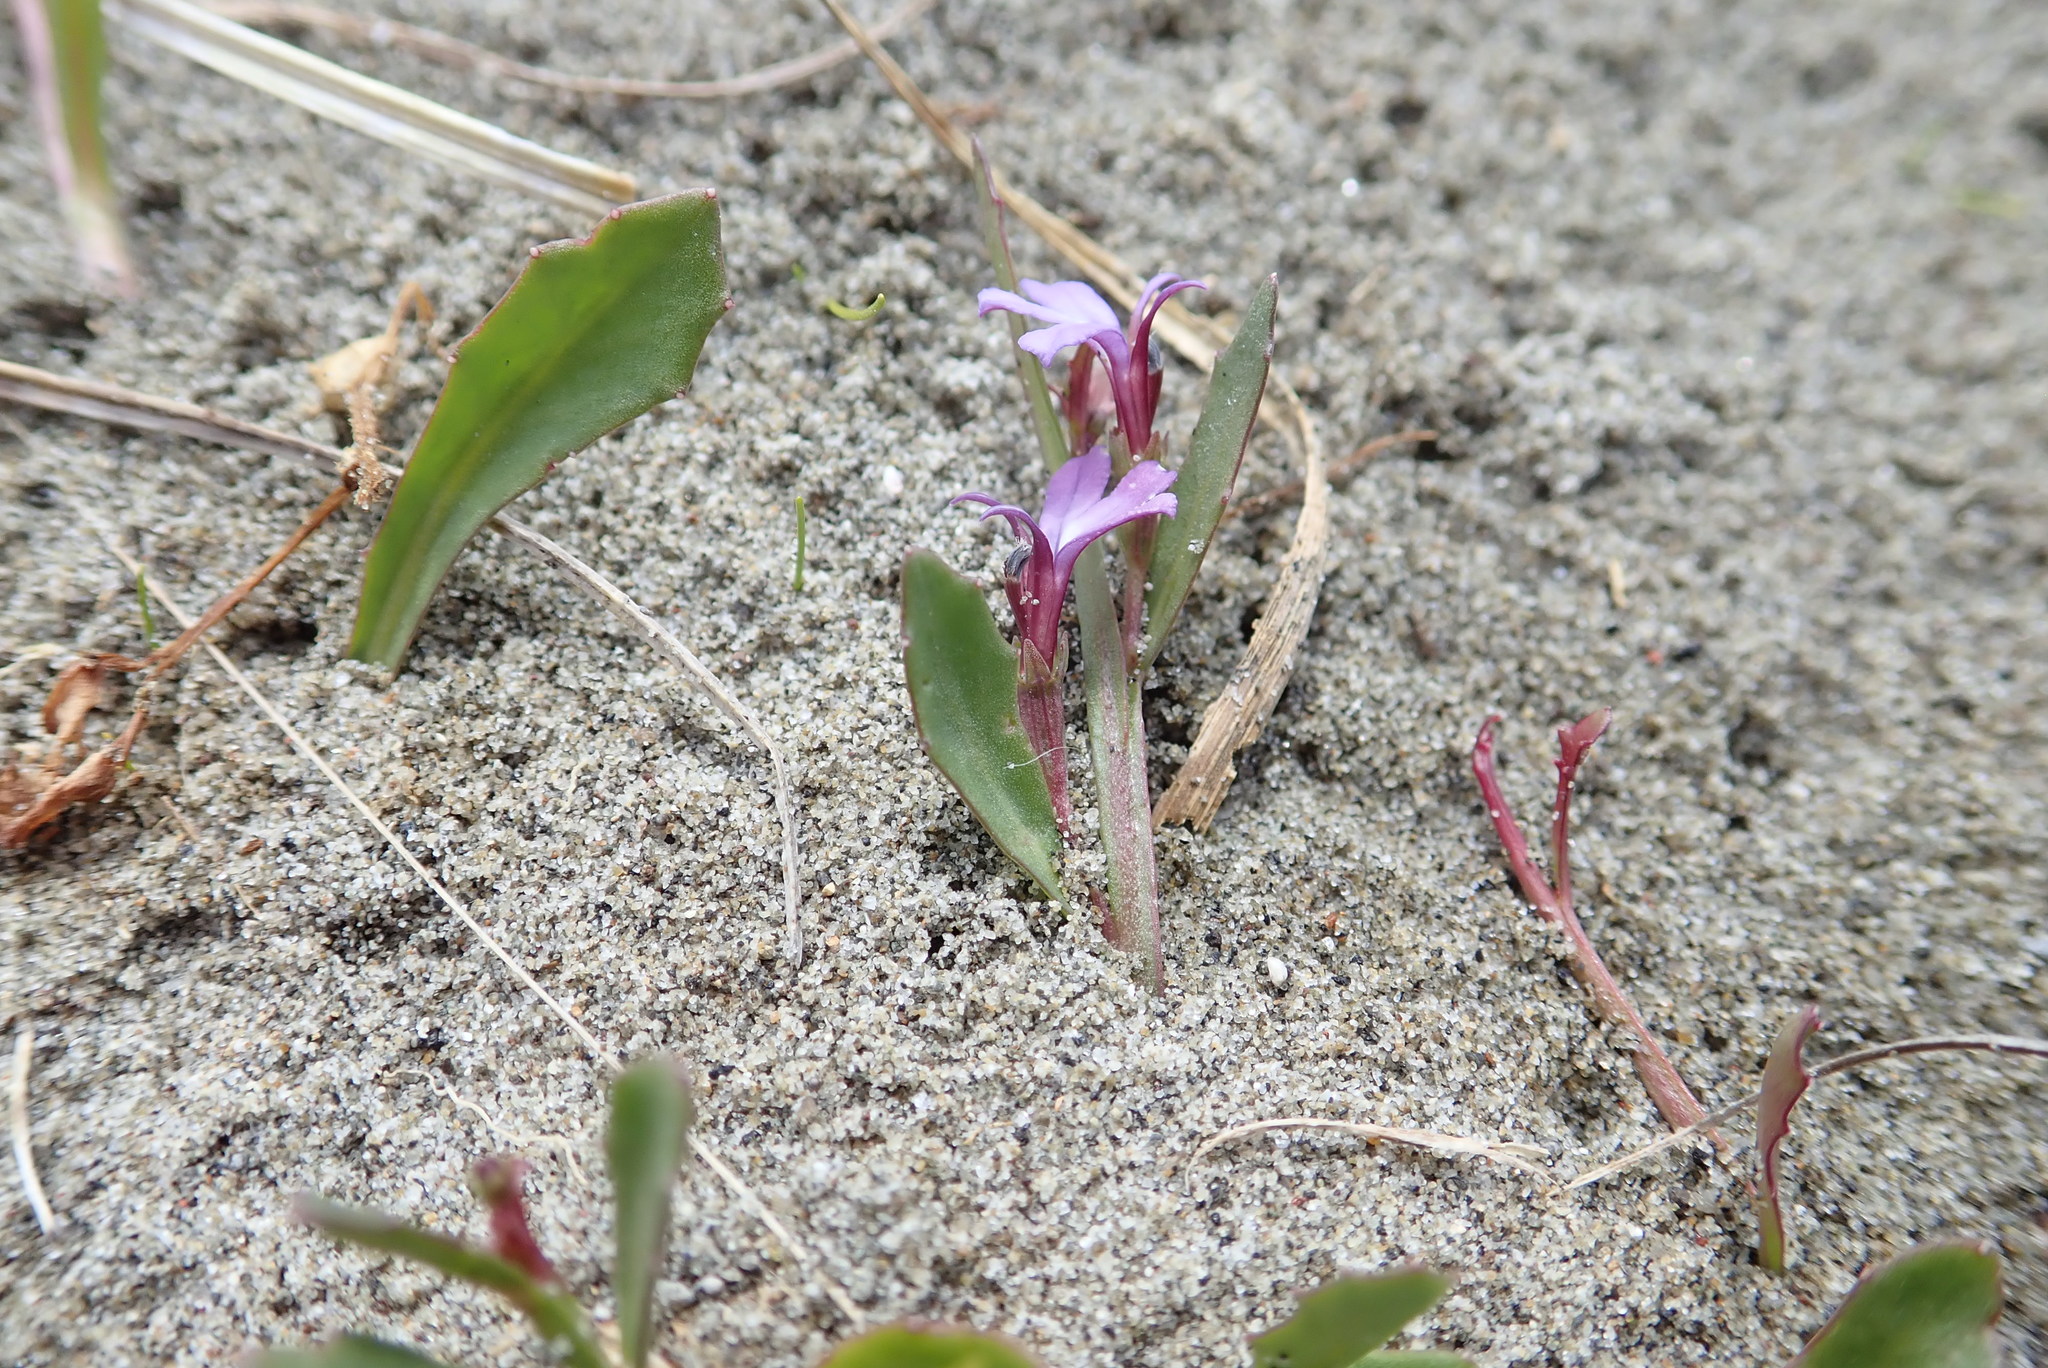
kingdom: Plantae
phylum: Tracheophyta
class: Magnoliopsida
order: Asterales
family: Campanulaceae
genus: Lobelia
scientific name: Lobelia anceps
